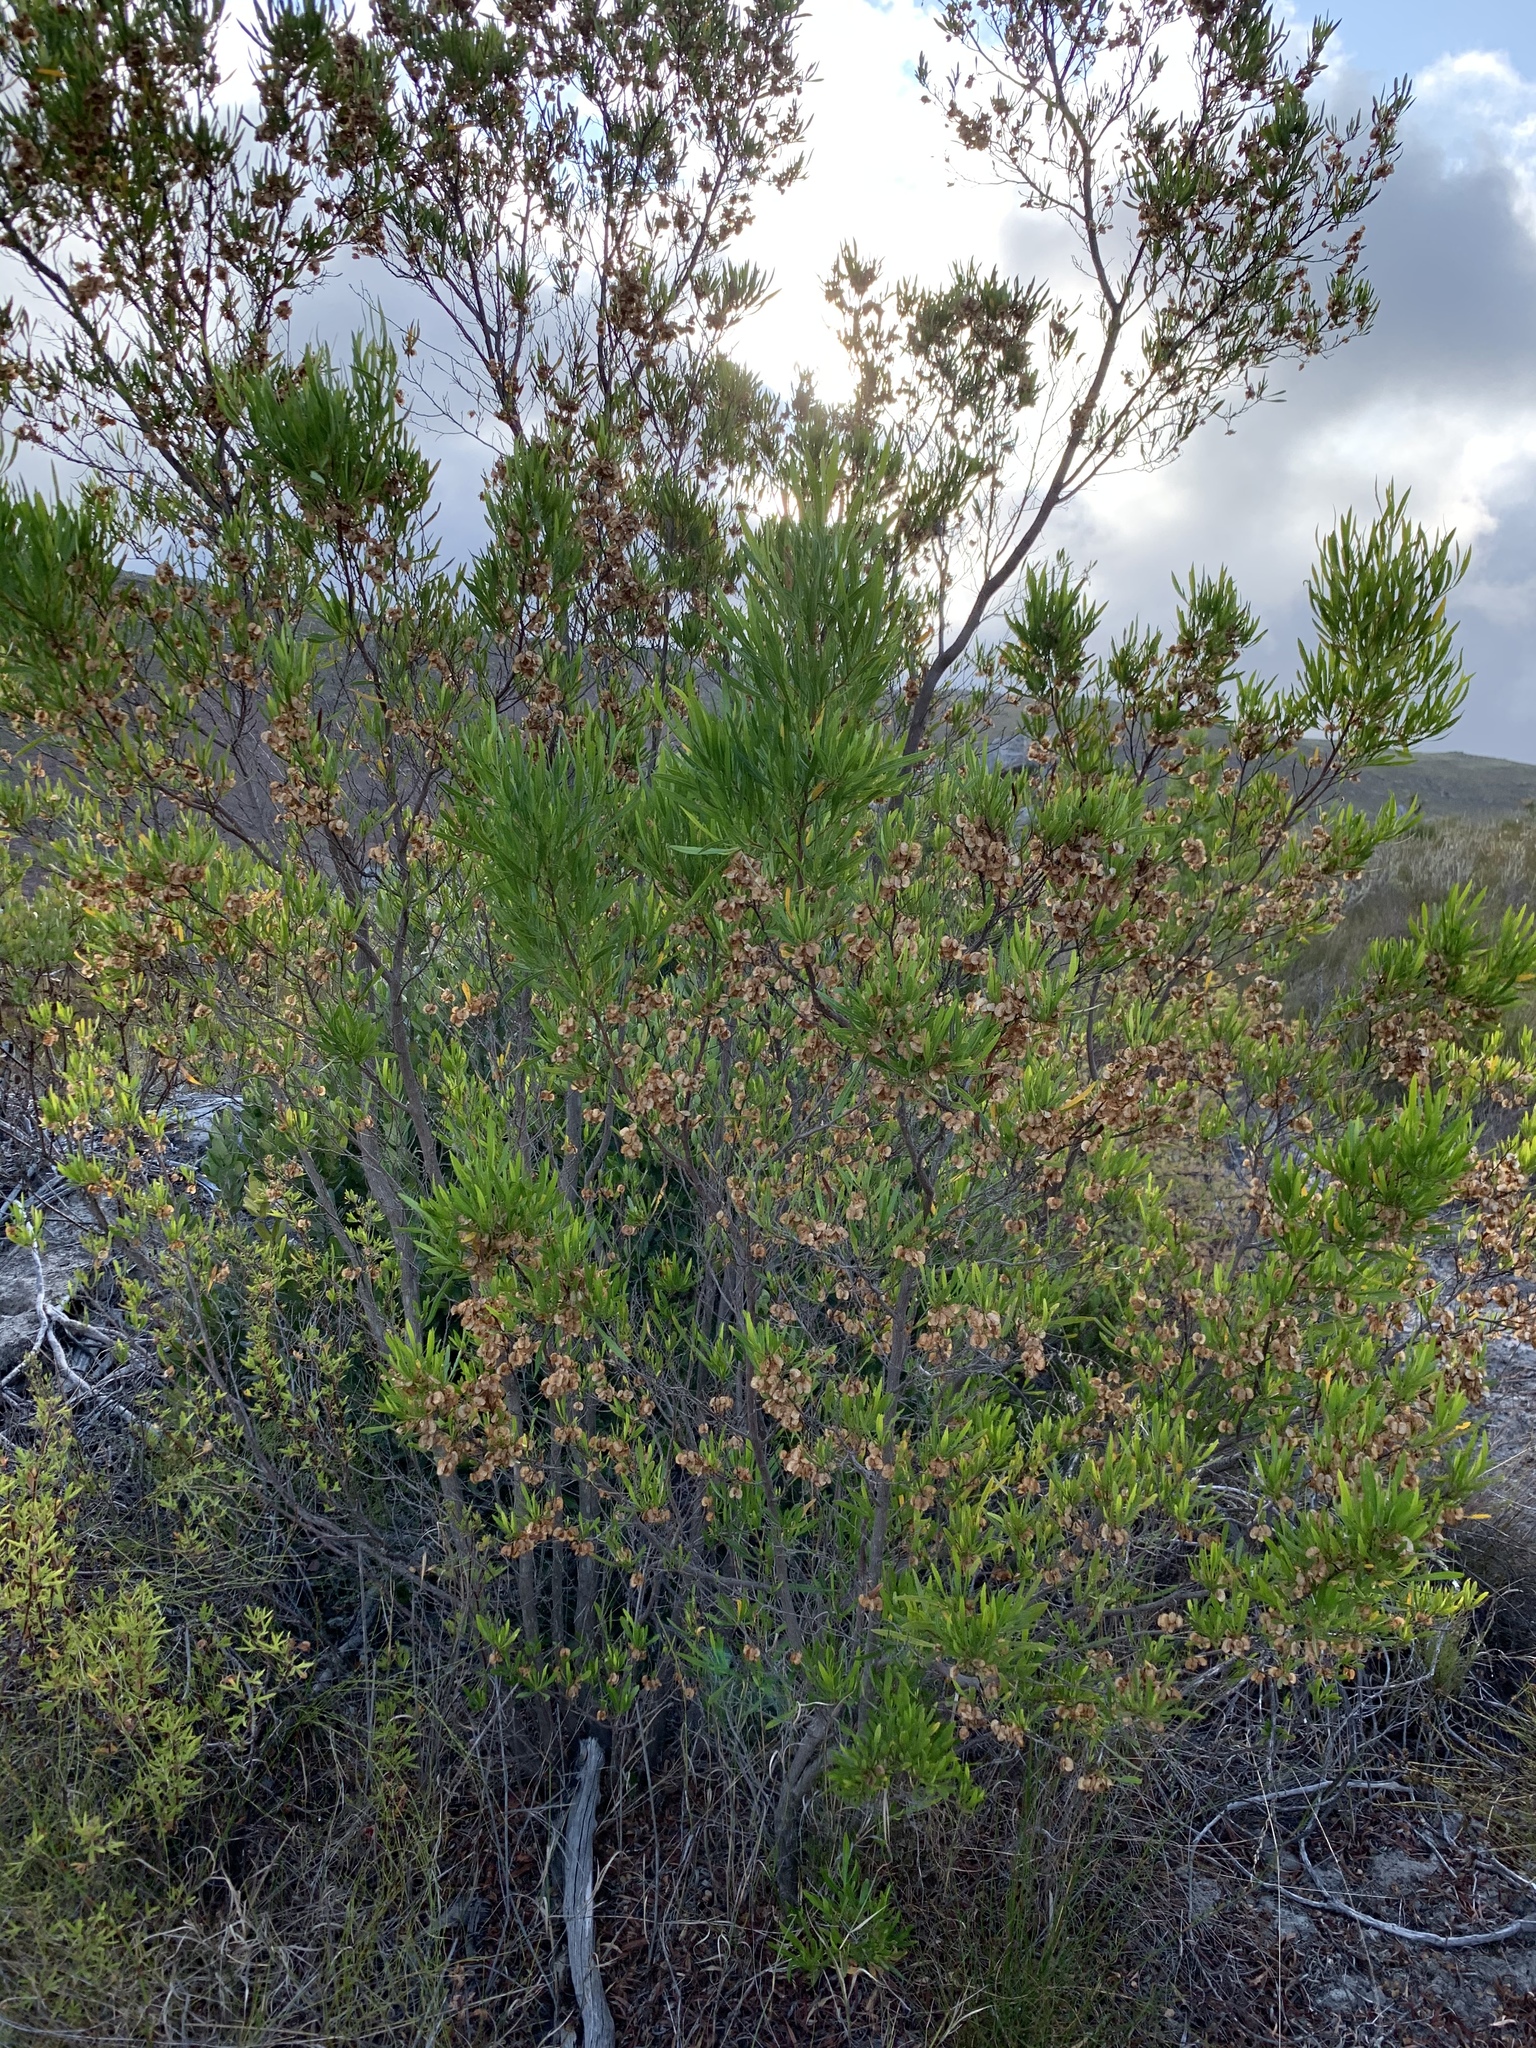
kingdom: Plantae
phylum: Tracheophyta
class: Magnoliopsida
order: Sapindales
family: Sapindaceae
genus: Dodonaea
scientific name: Dodonaea viscosa
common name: Hopbush
